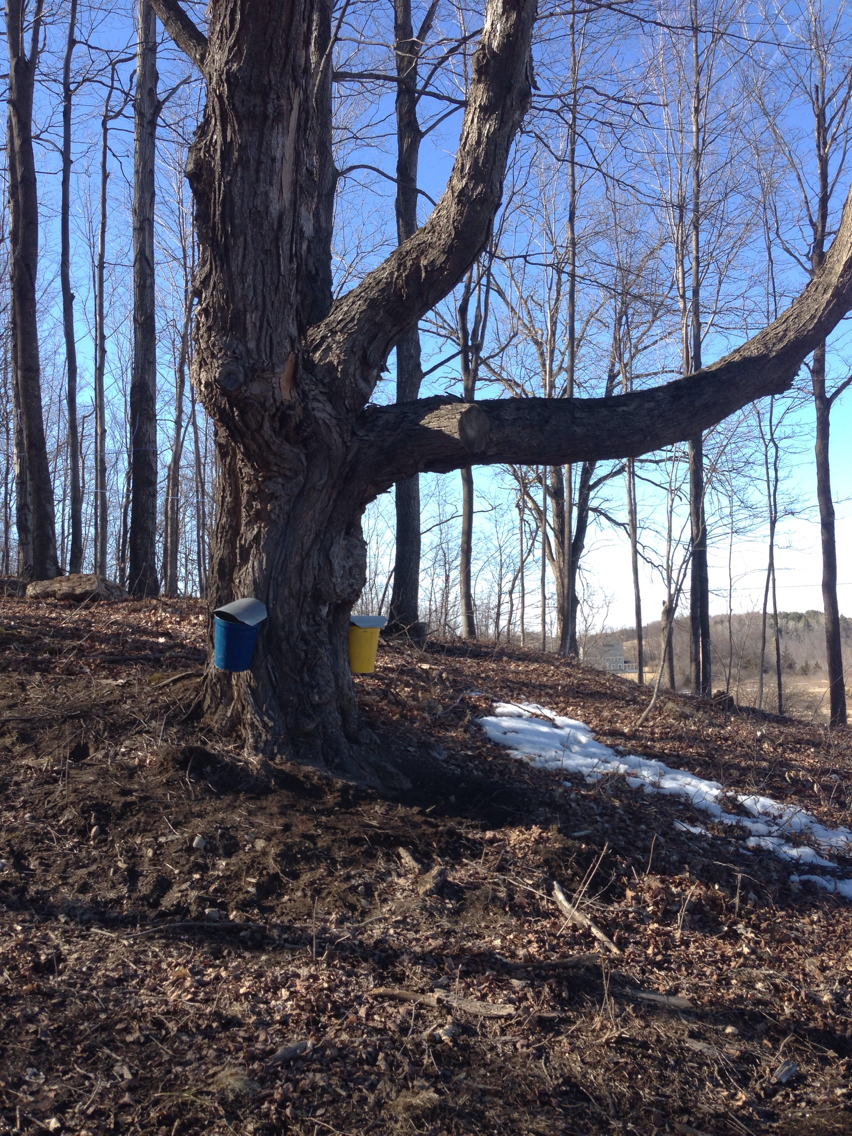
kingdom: Plantae
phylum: Tracheophyta
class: Magnoliopsida
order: Sapindales
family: Sapindaceae
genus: Acer
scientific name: Acer saccharum
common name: Sugar maple
